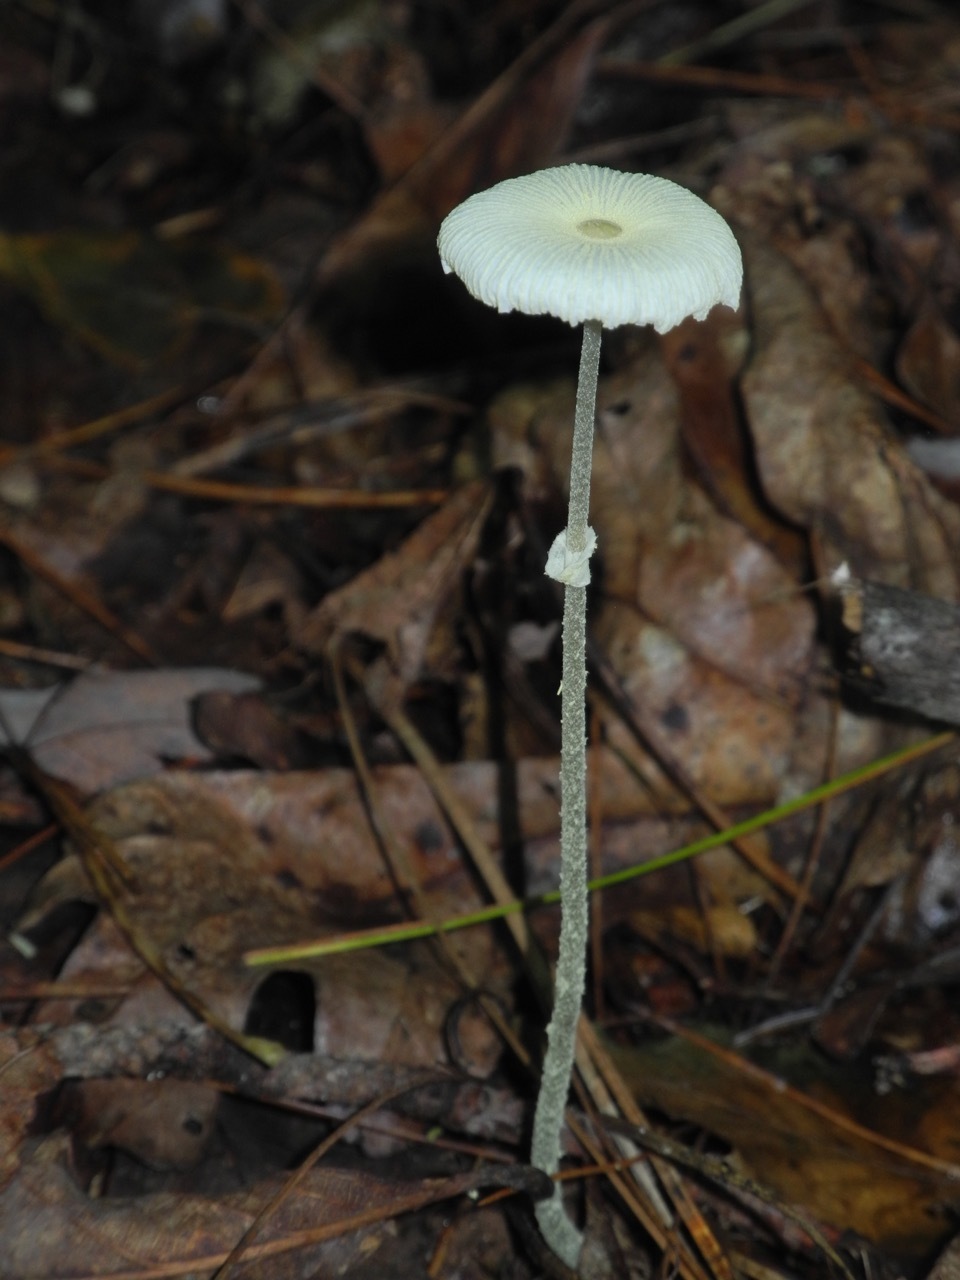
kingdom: Fungi
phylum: Basidiomycota
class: Agaricomycetes
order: Agaricales
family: Agaricaceae
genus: Leucocoprinus
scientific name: Leucocoprinus fragilissimus
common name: Fragile dapperling
